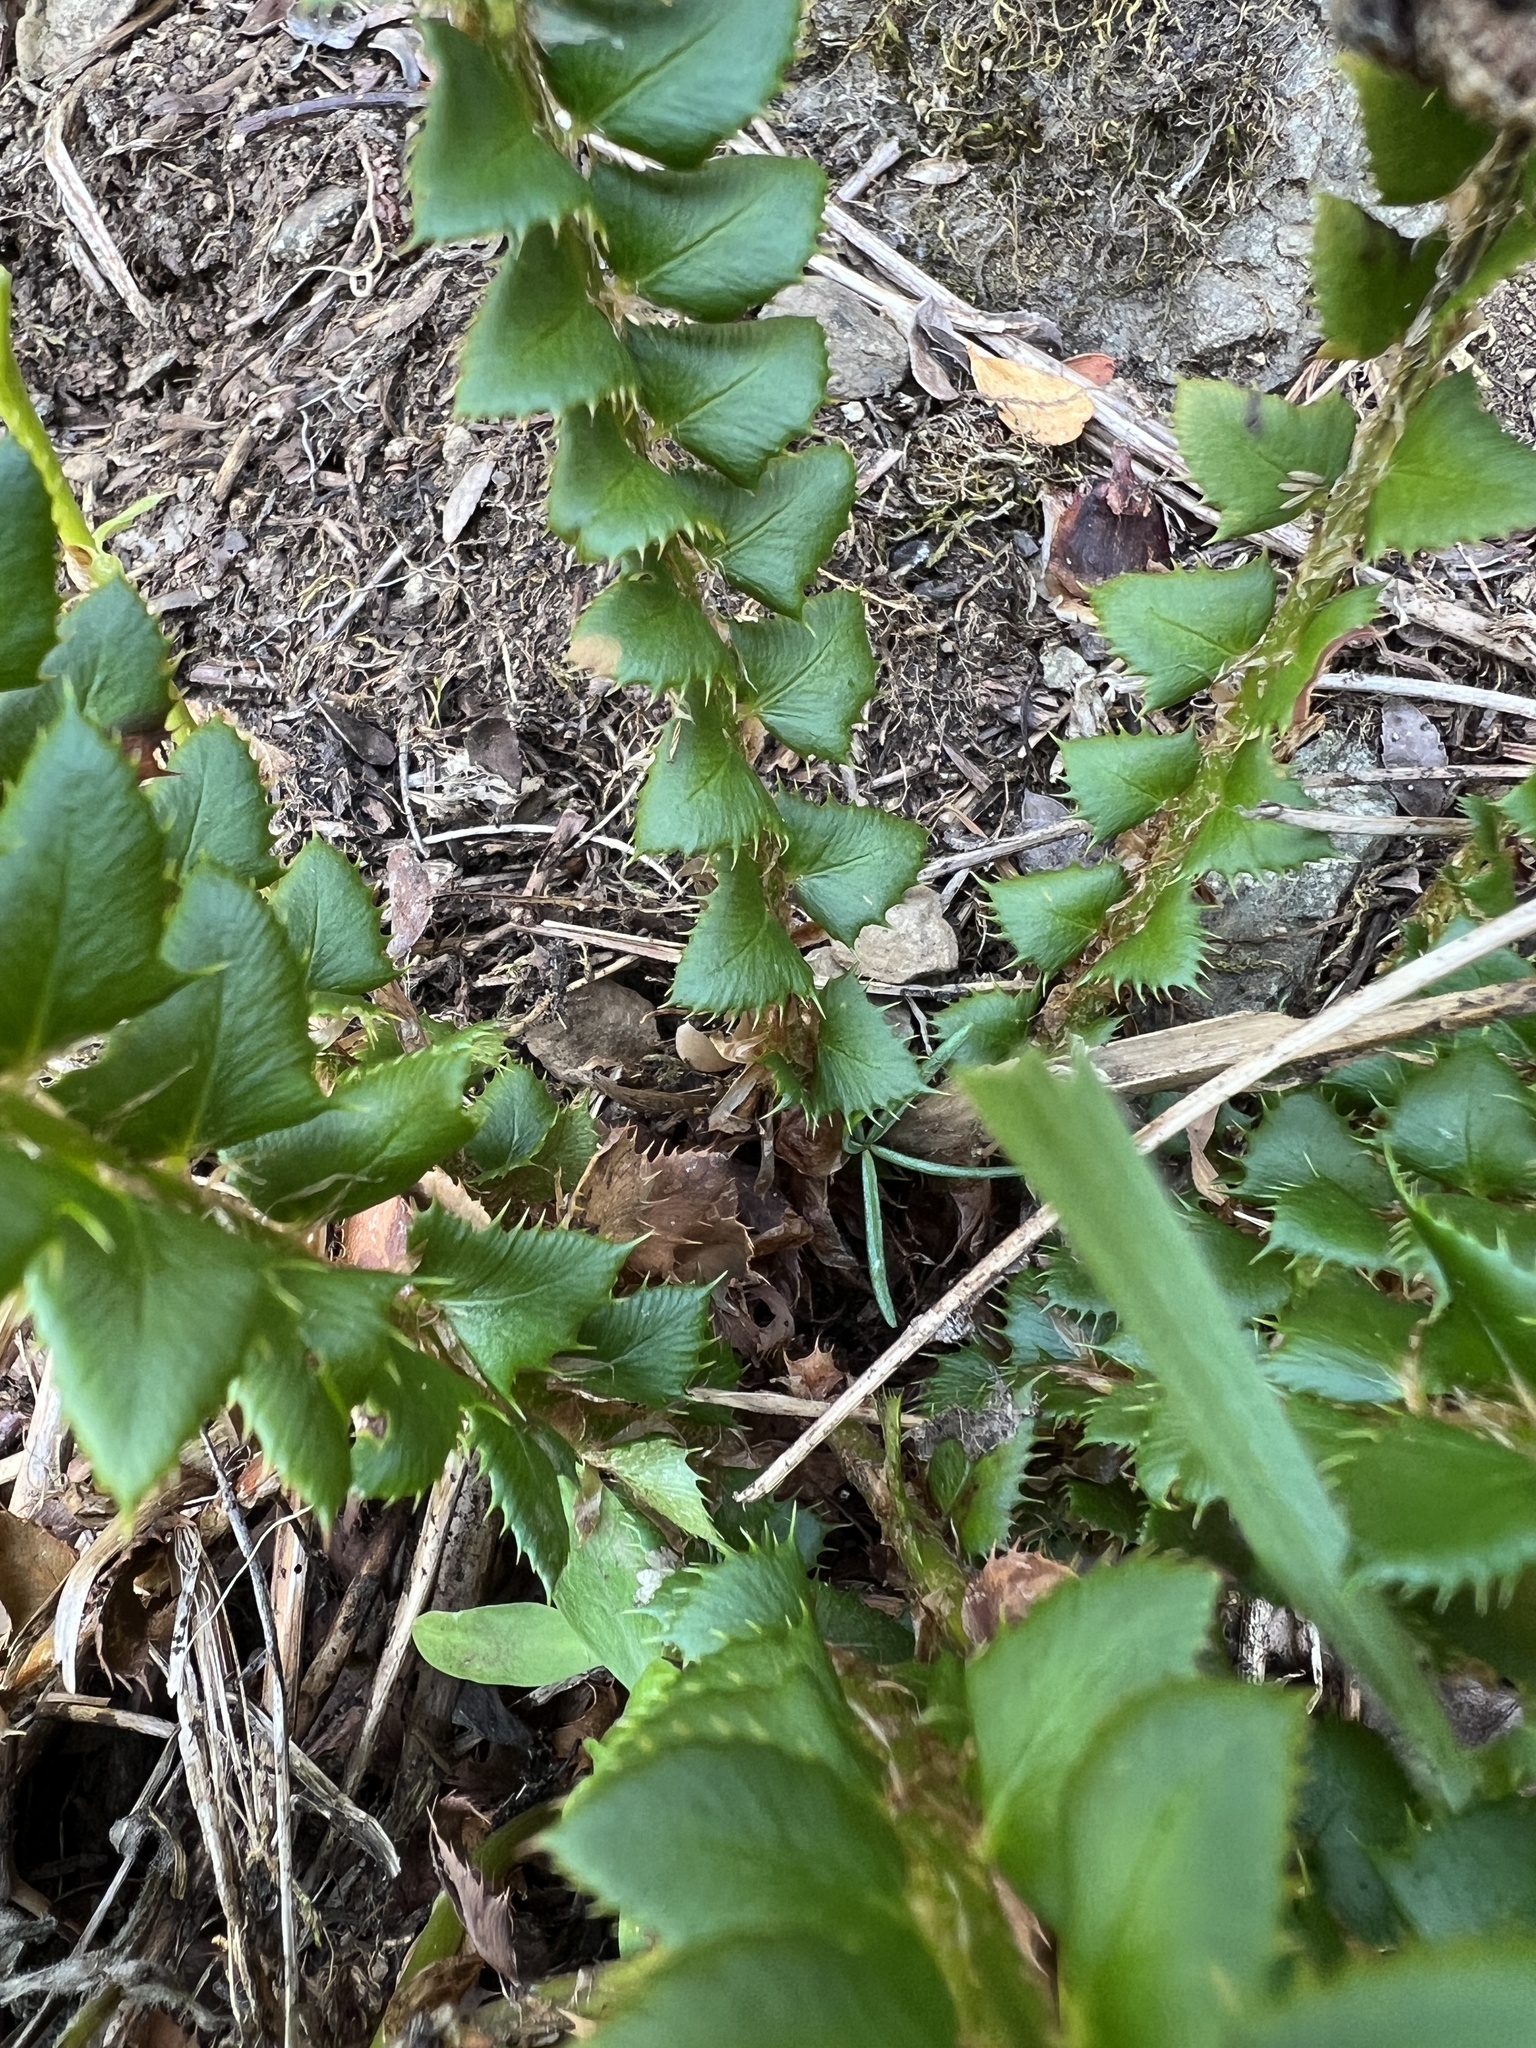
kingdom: Plantae
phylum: Tracheophyta
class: Polypodiopsida
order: Polypodiales
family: Dryopteridaceae
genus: Polystichum
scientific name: Polystichum lonchitis
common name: Holly fern
